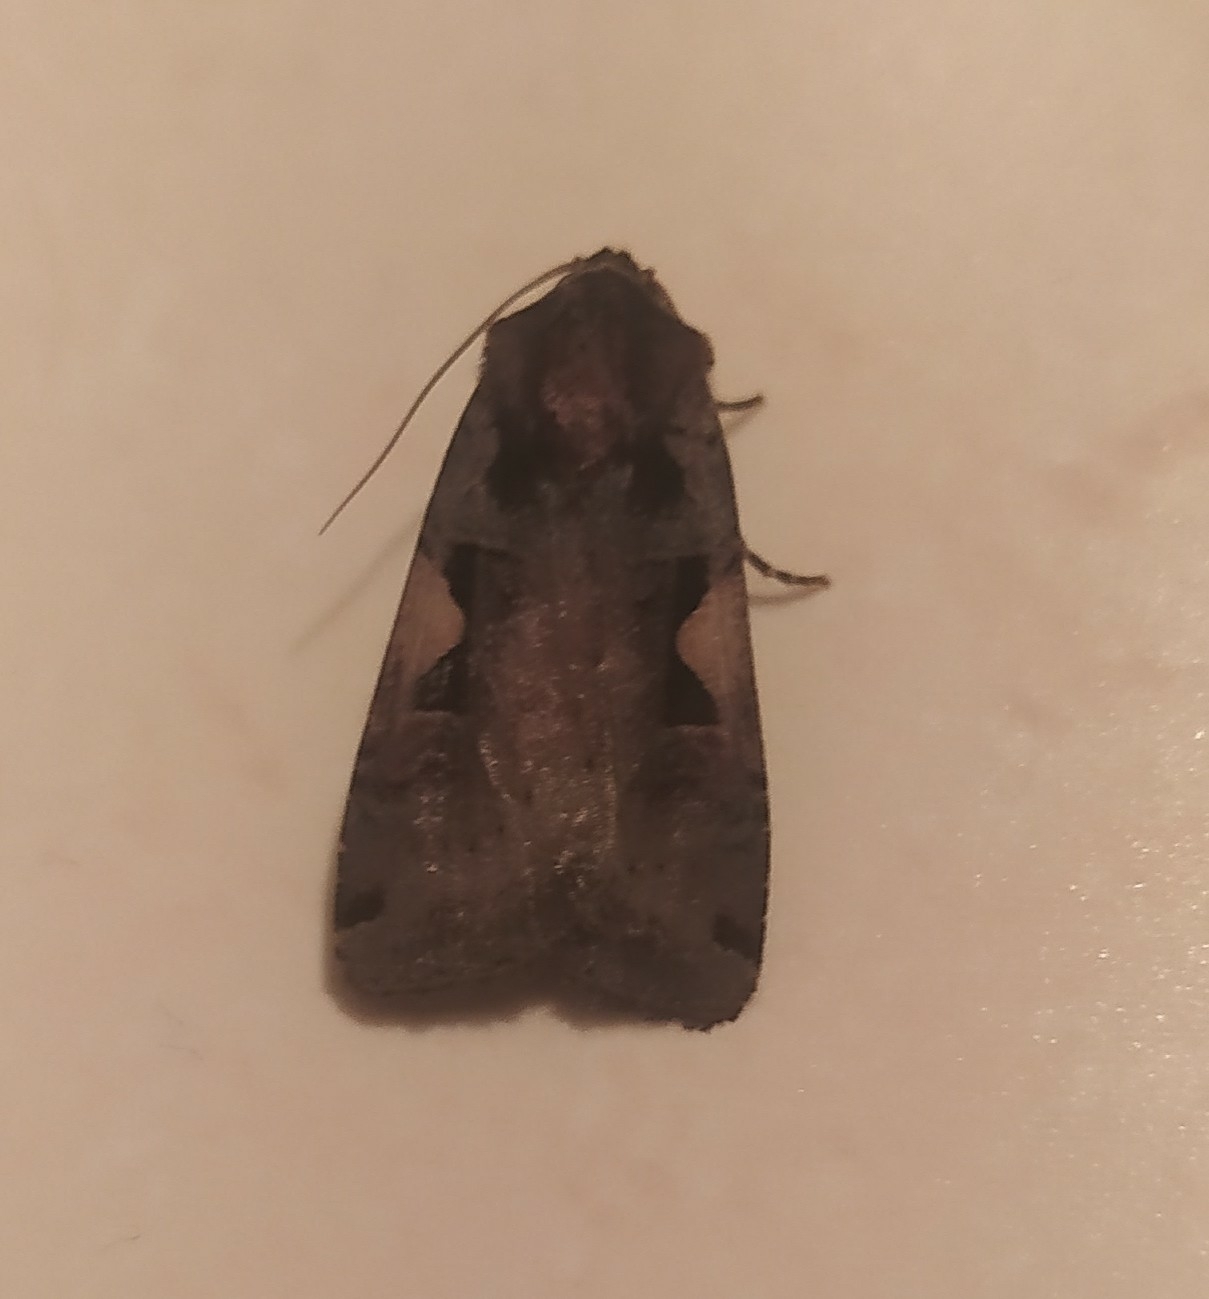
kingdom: Animalia
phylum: Arthropoda
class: Insecta
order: Lepidoptera
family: Noctuidae
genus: Xestia
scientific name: Xestia c-nigrum
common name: Setaceous hebrew character
